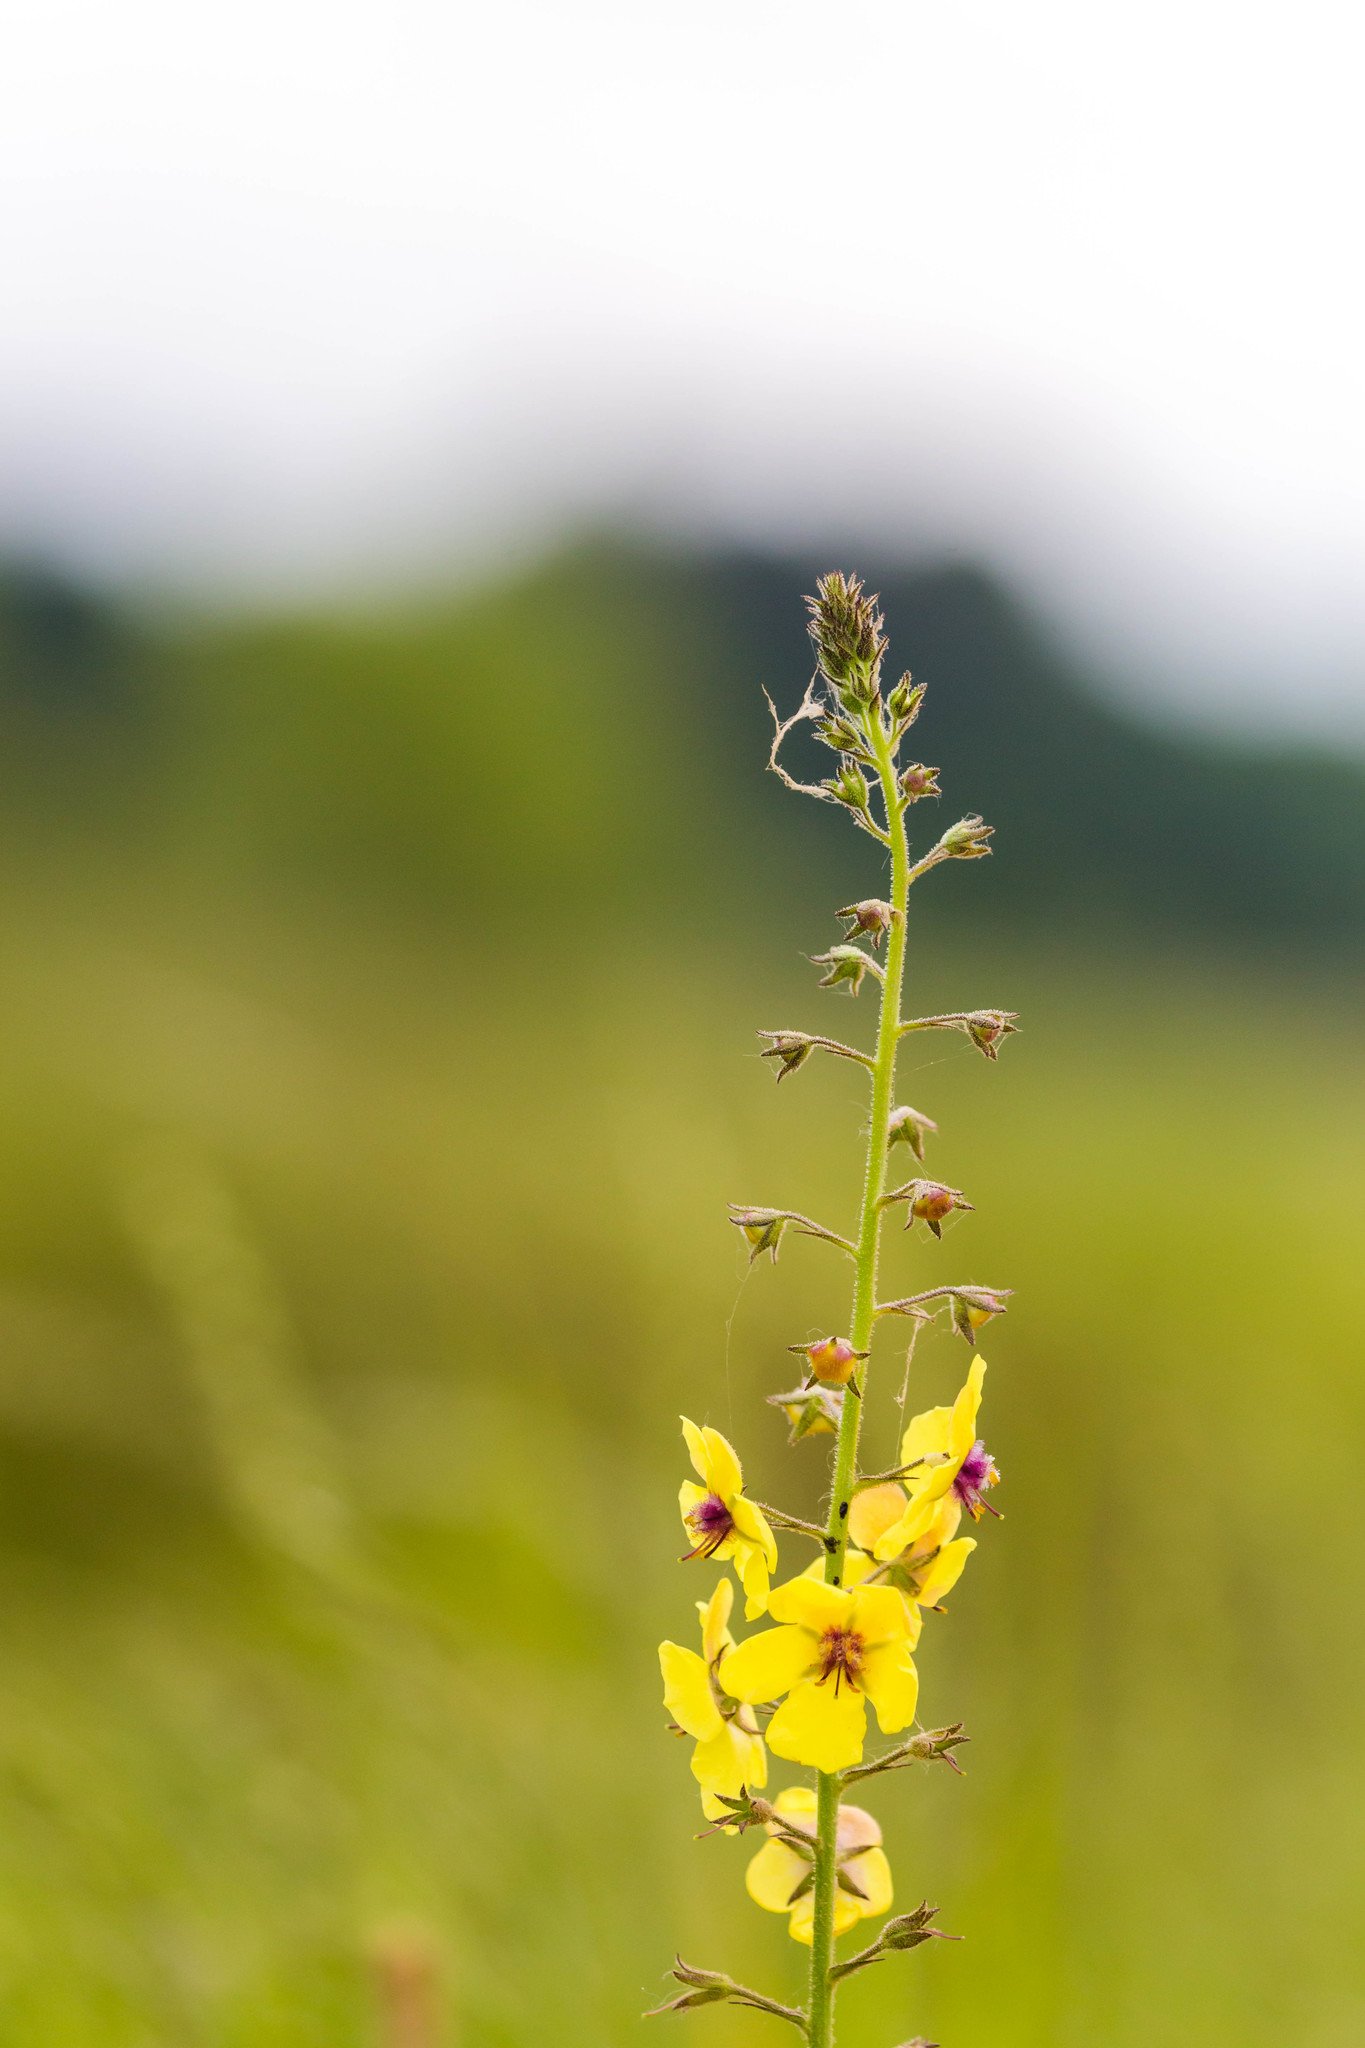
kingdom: Plantae
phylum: Tracheophyta
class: Magnoliopsida
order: Lamiales
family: Scrophulariaceae
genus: Verbascum
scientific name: Verbascum blattaria
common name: Moth mullein
